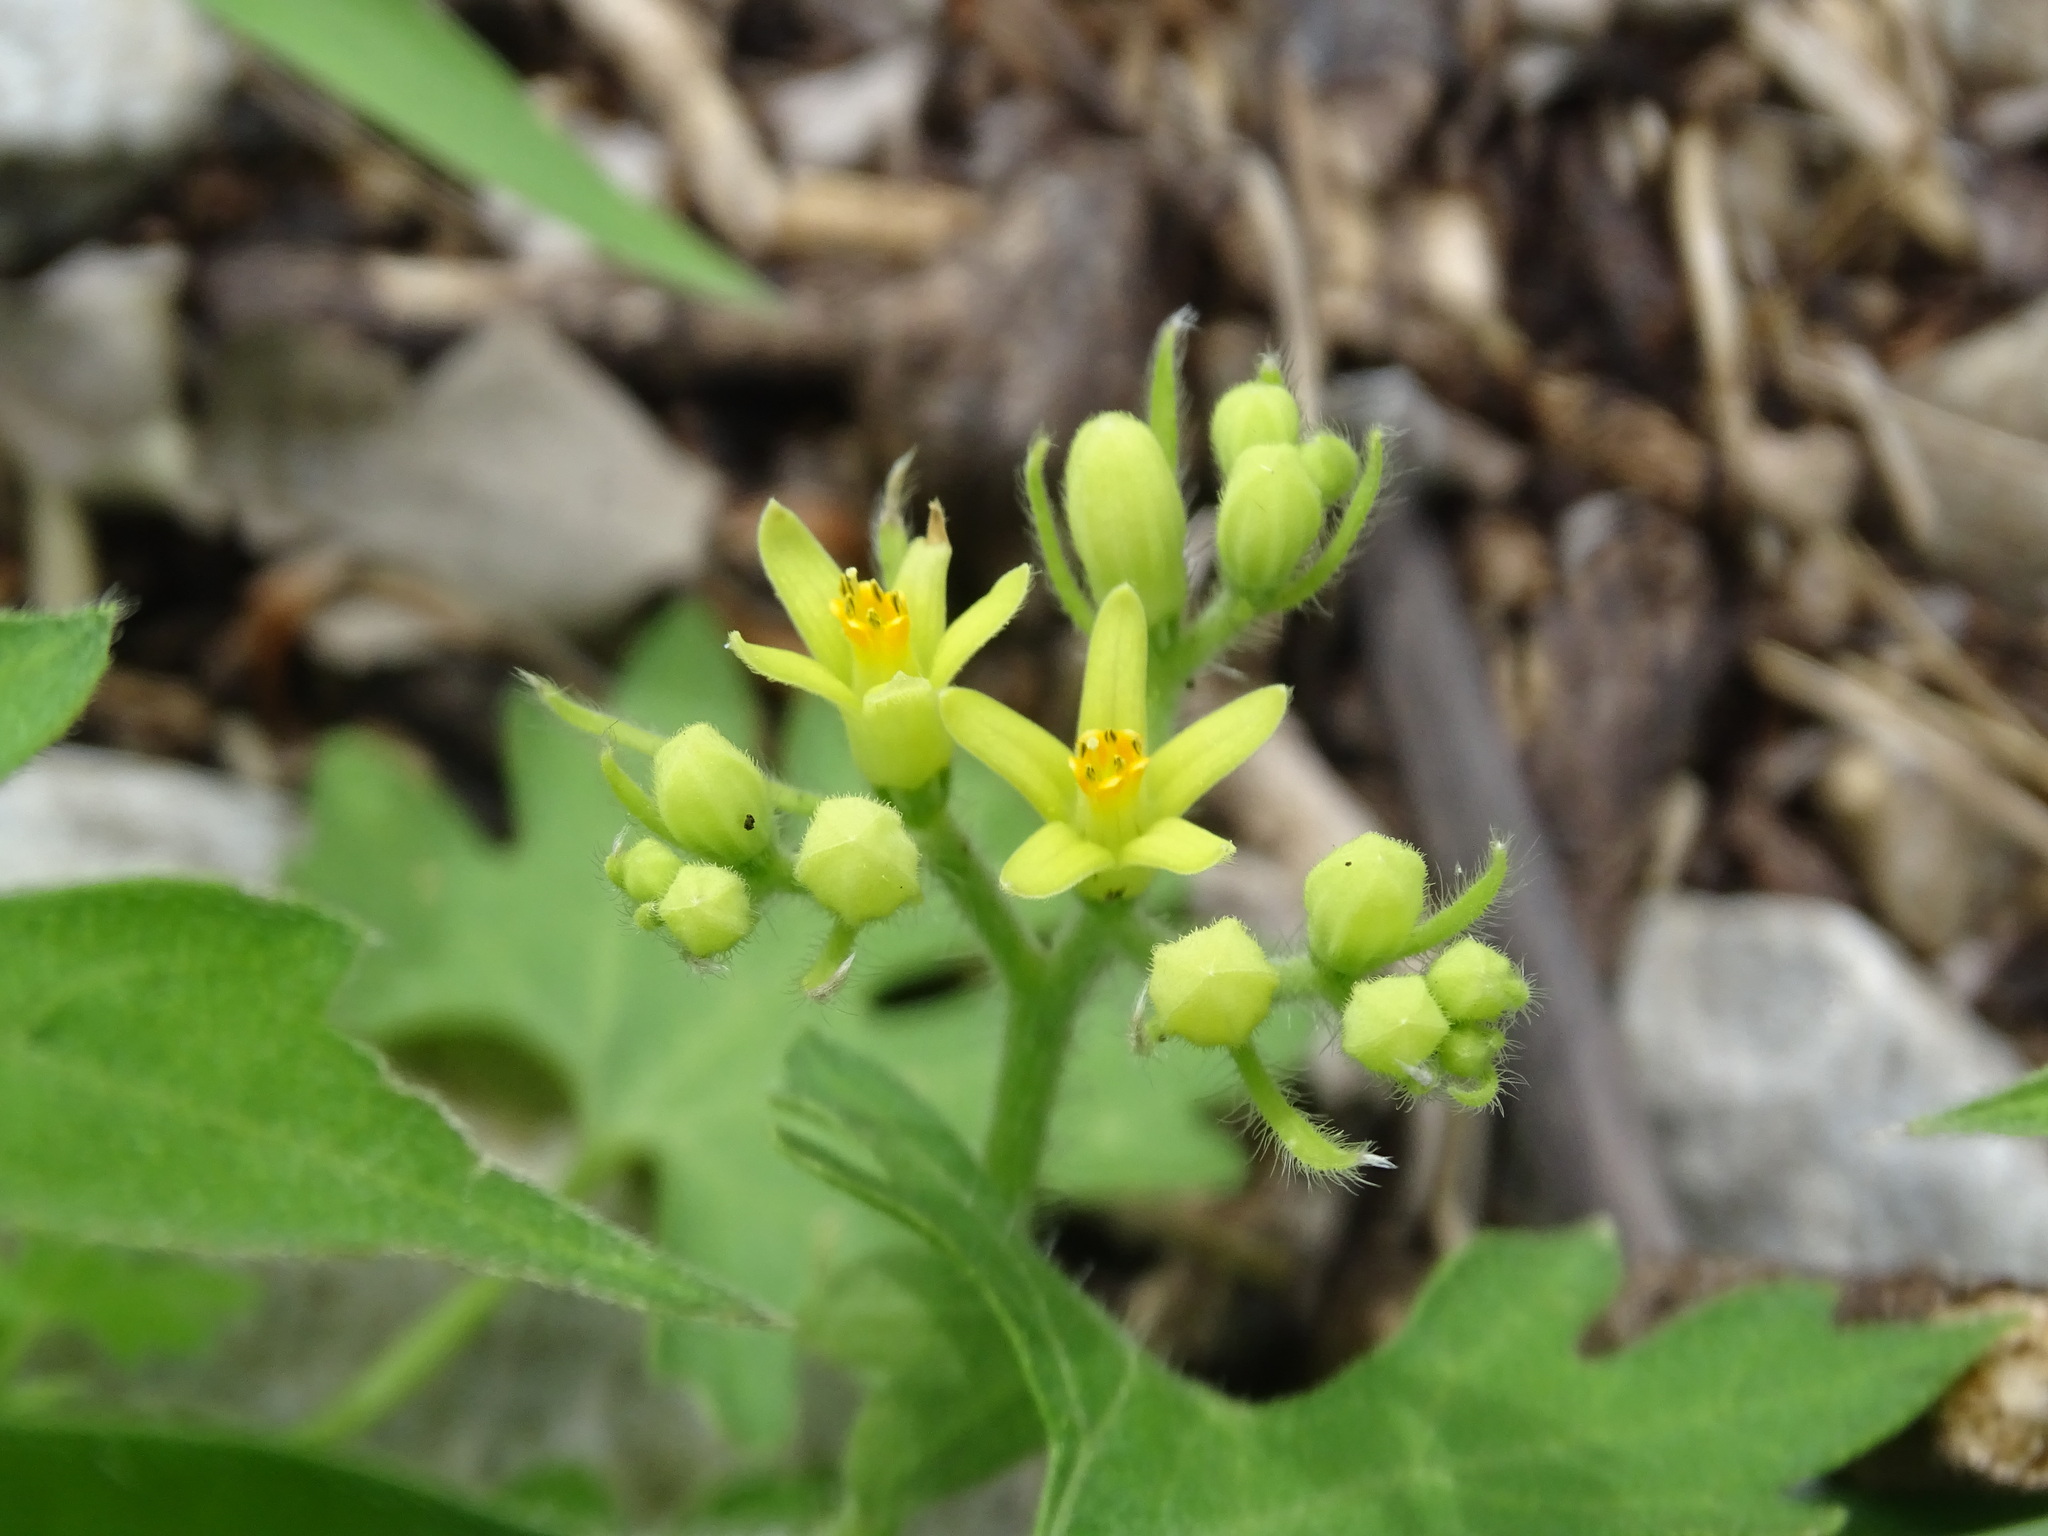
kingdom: Plantae
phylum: Tracheophyta
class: Magnoliopsida
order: Cornales
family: Loasaceae
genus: Gronovia
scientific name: Gronovia scandens
